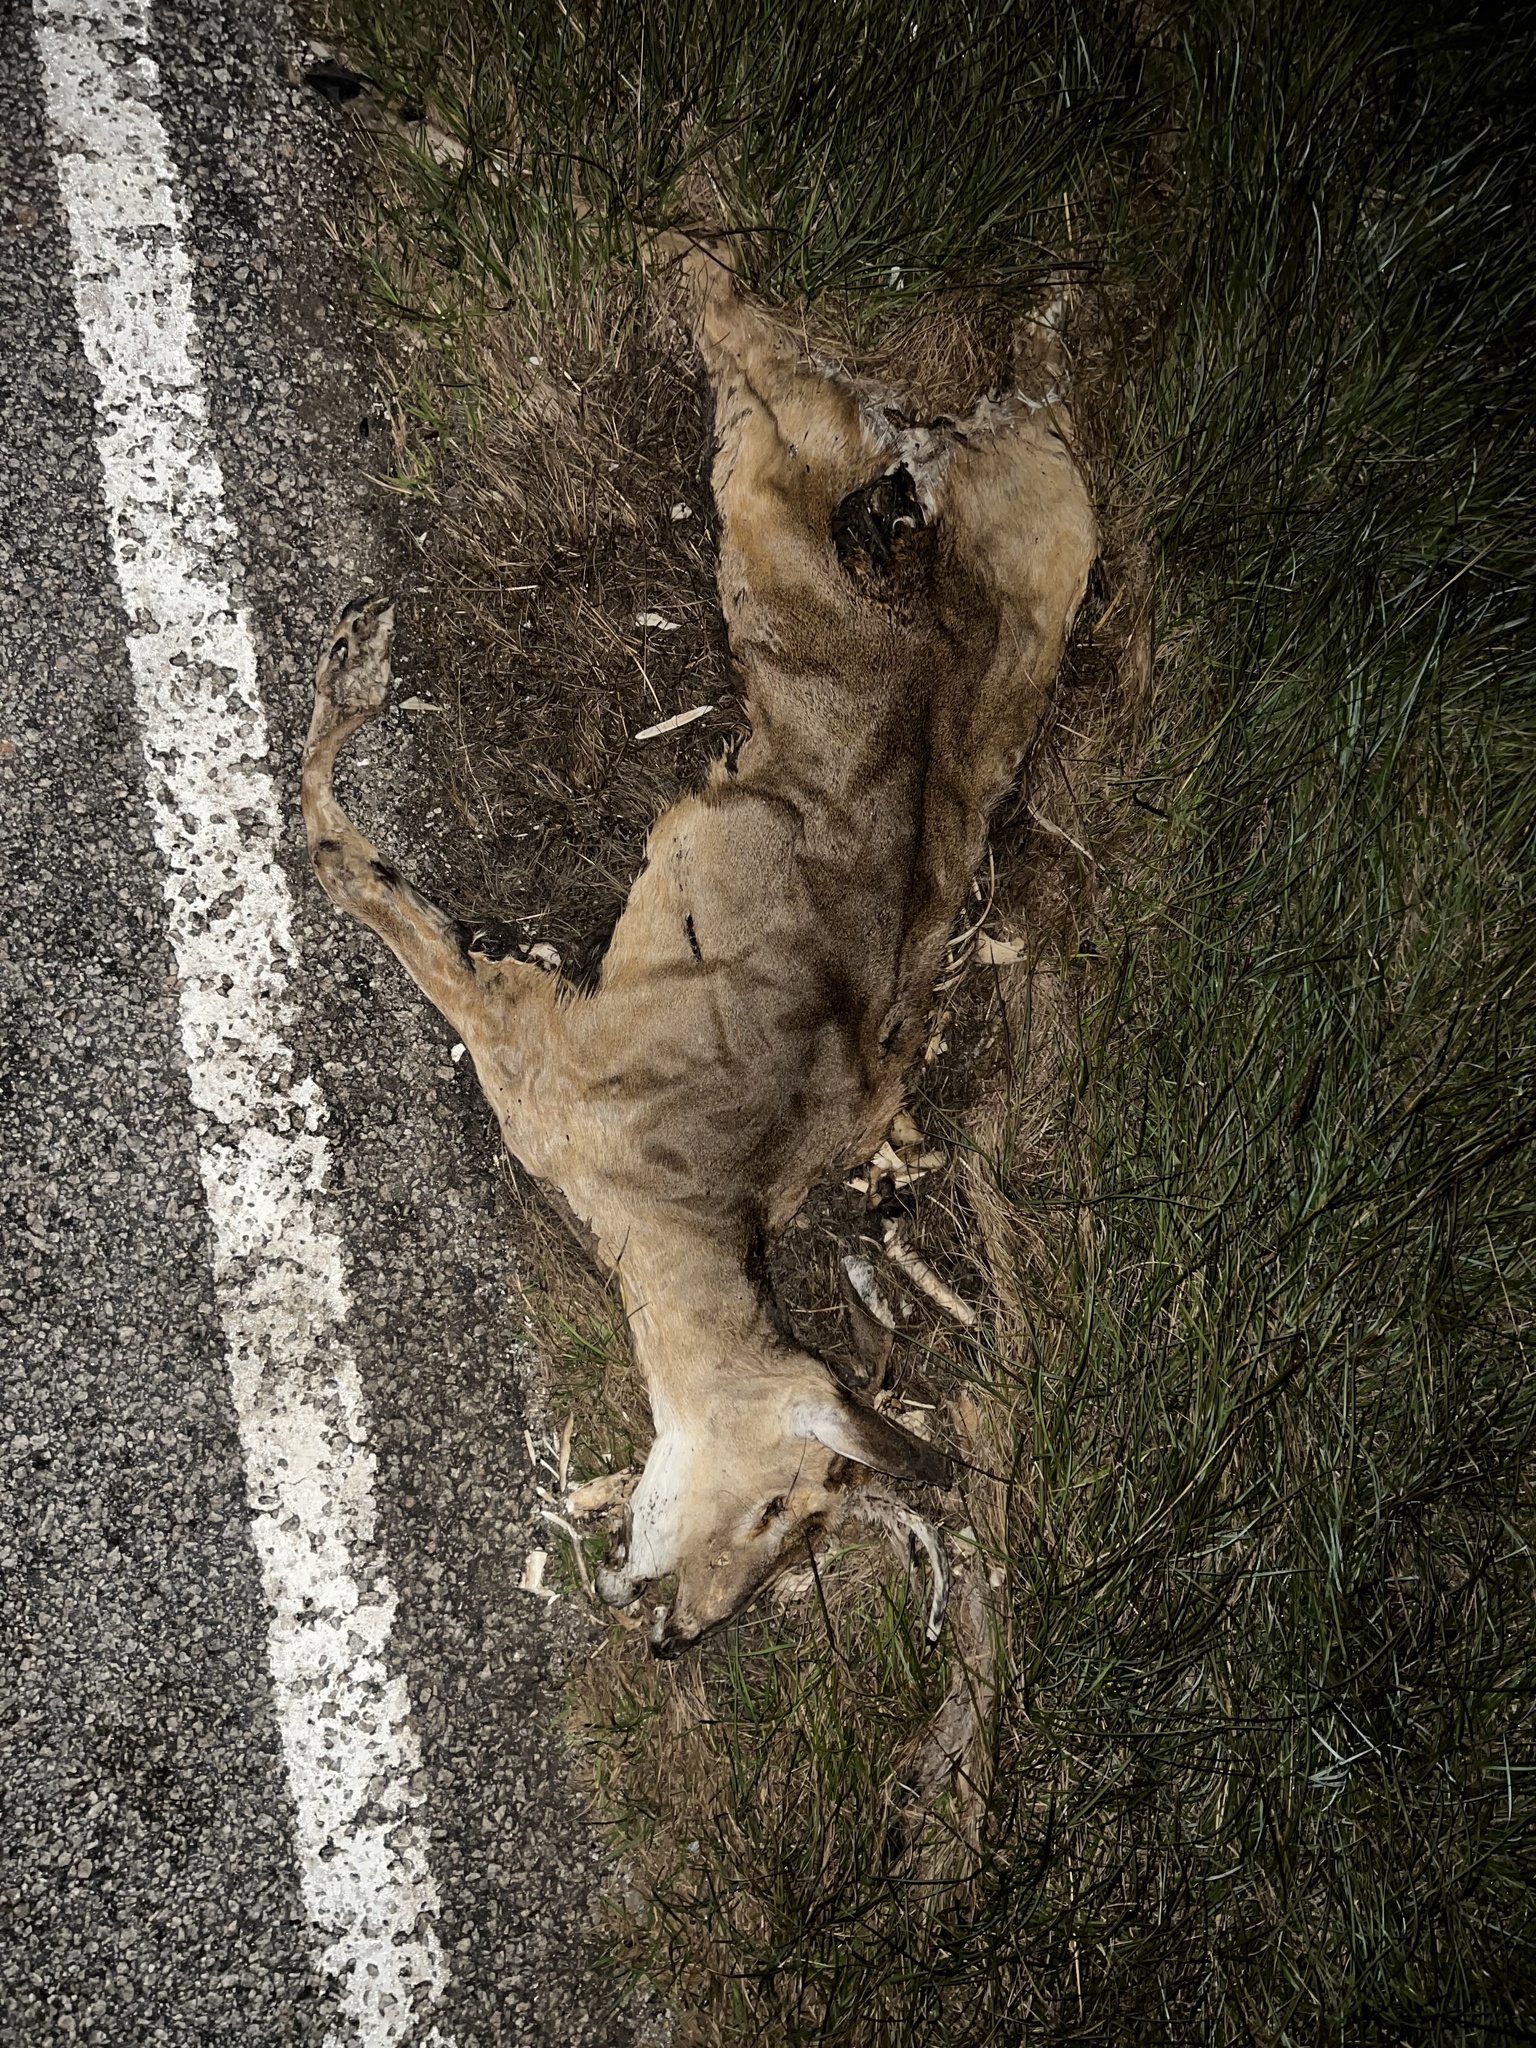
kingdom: Animalia
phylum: Chordata
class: Mammalia
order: Artiodactyla
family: Cervidae
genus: Odocoileus
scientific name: Odocoileus virginianus
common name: White-tailed deer
